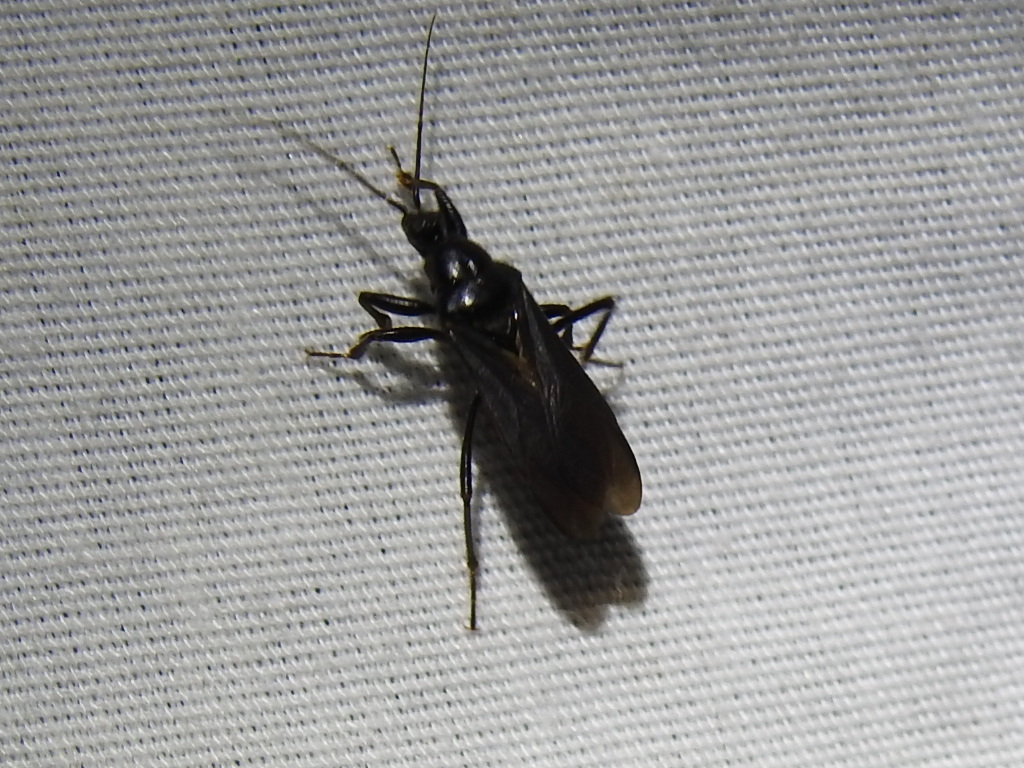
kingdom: Animalia
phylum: Arthropoda
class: Insecta
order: Hemiptera
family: Reduviidae
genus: Melanolestes
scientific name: Melanolestes picipes
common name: Assassin bug
